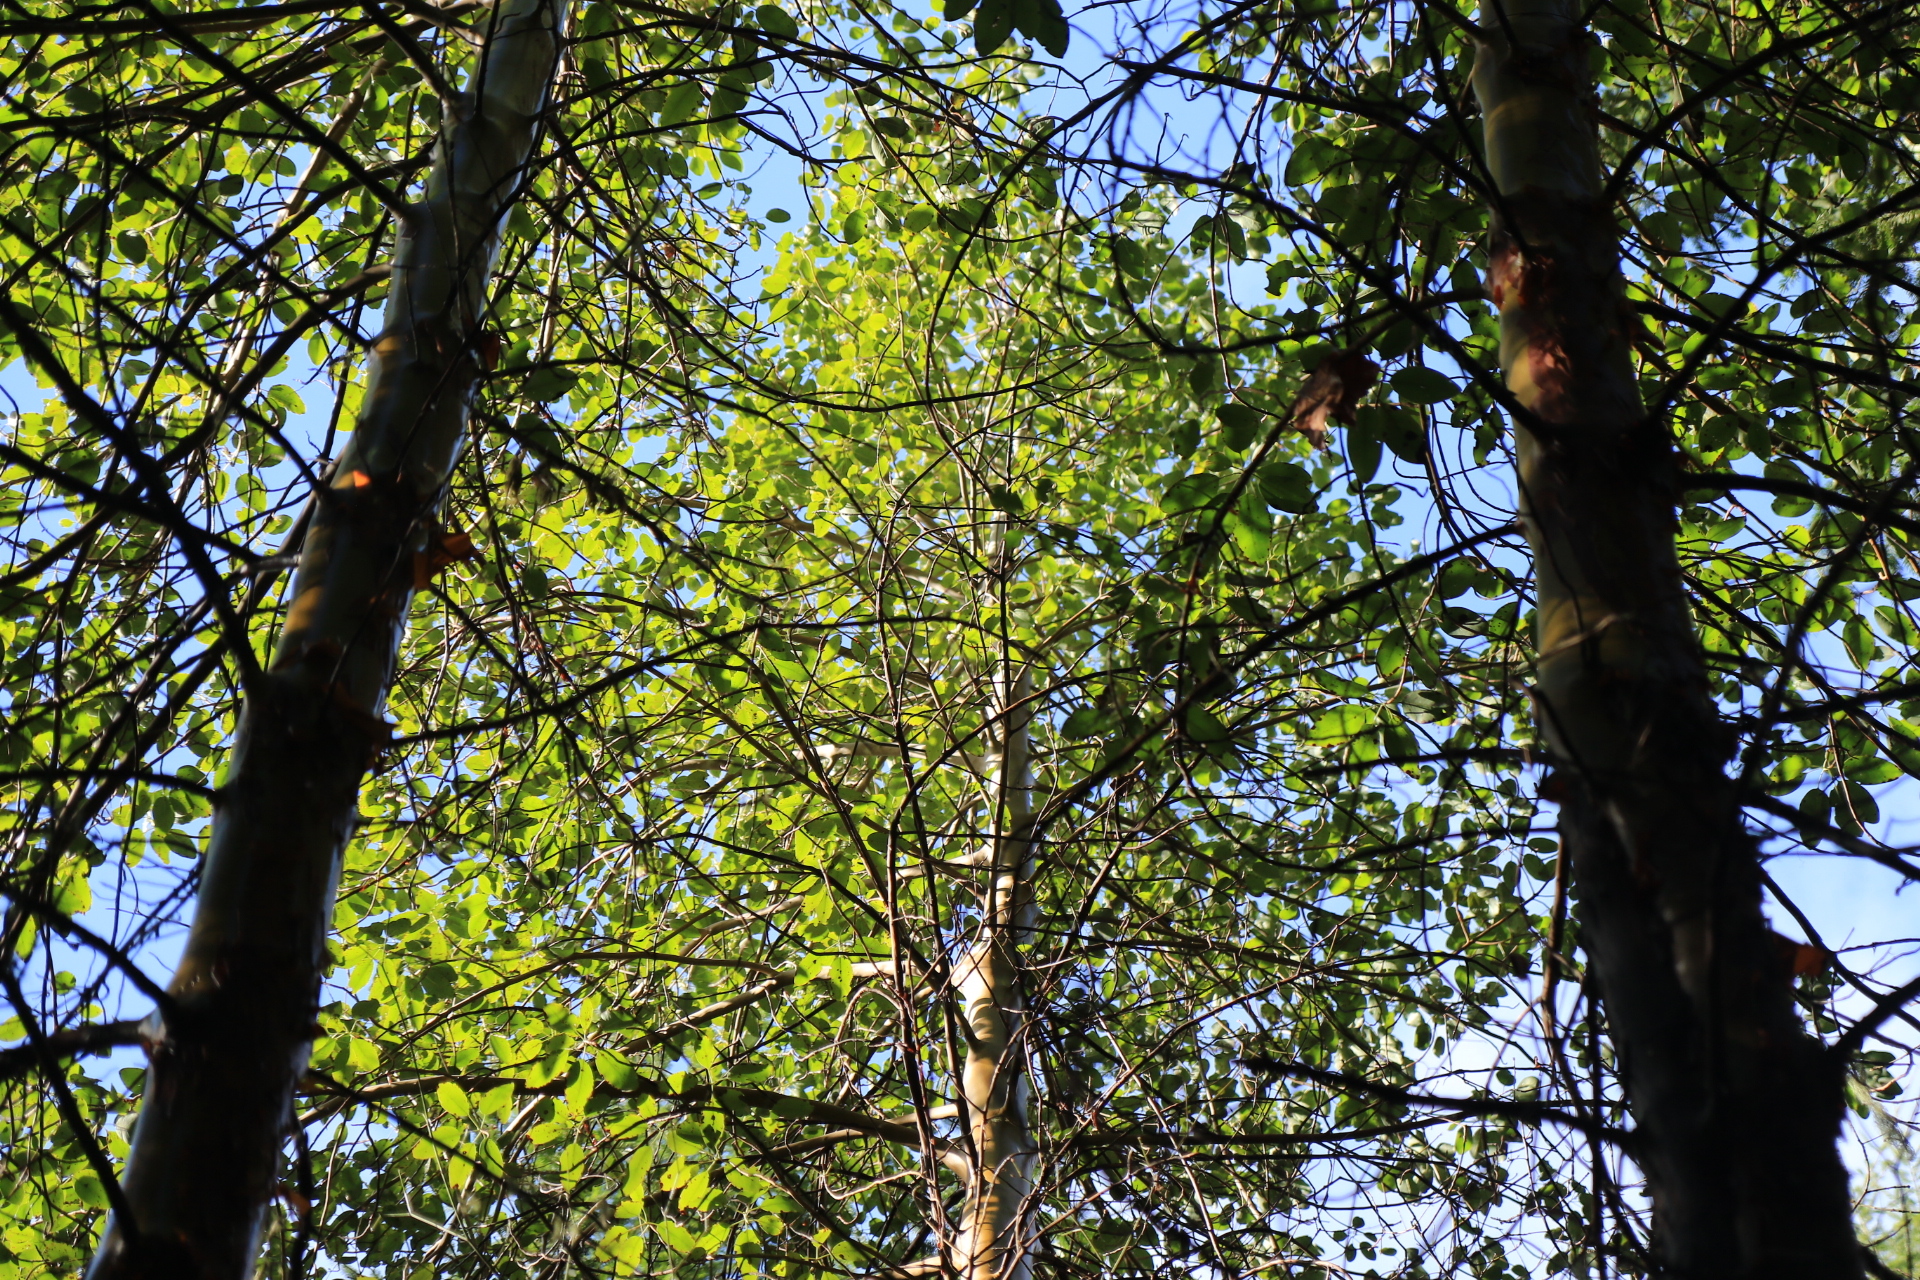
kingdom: Plantae
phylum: Tracheophyta
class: Magnoliopsida
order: Ericales
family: Ericaceae
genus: Arbutus
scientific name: Arbutus menziesii
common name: Pacific madrone
